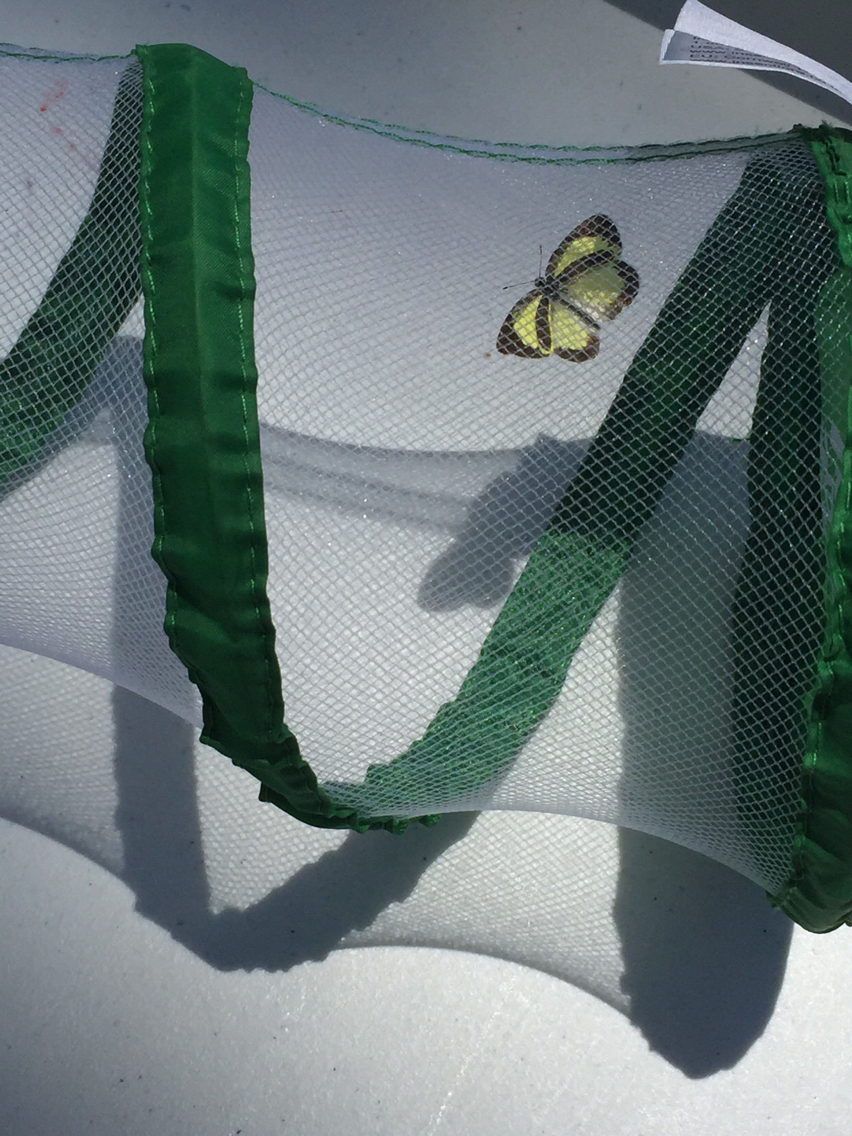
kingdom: Animalia
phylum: Arthropoda
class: Insecta
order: Lepidoptera
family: Pieridae
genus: Eurema
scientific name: Eurema daira
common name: Barred sulphur
